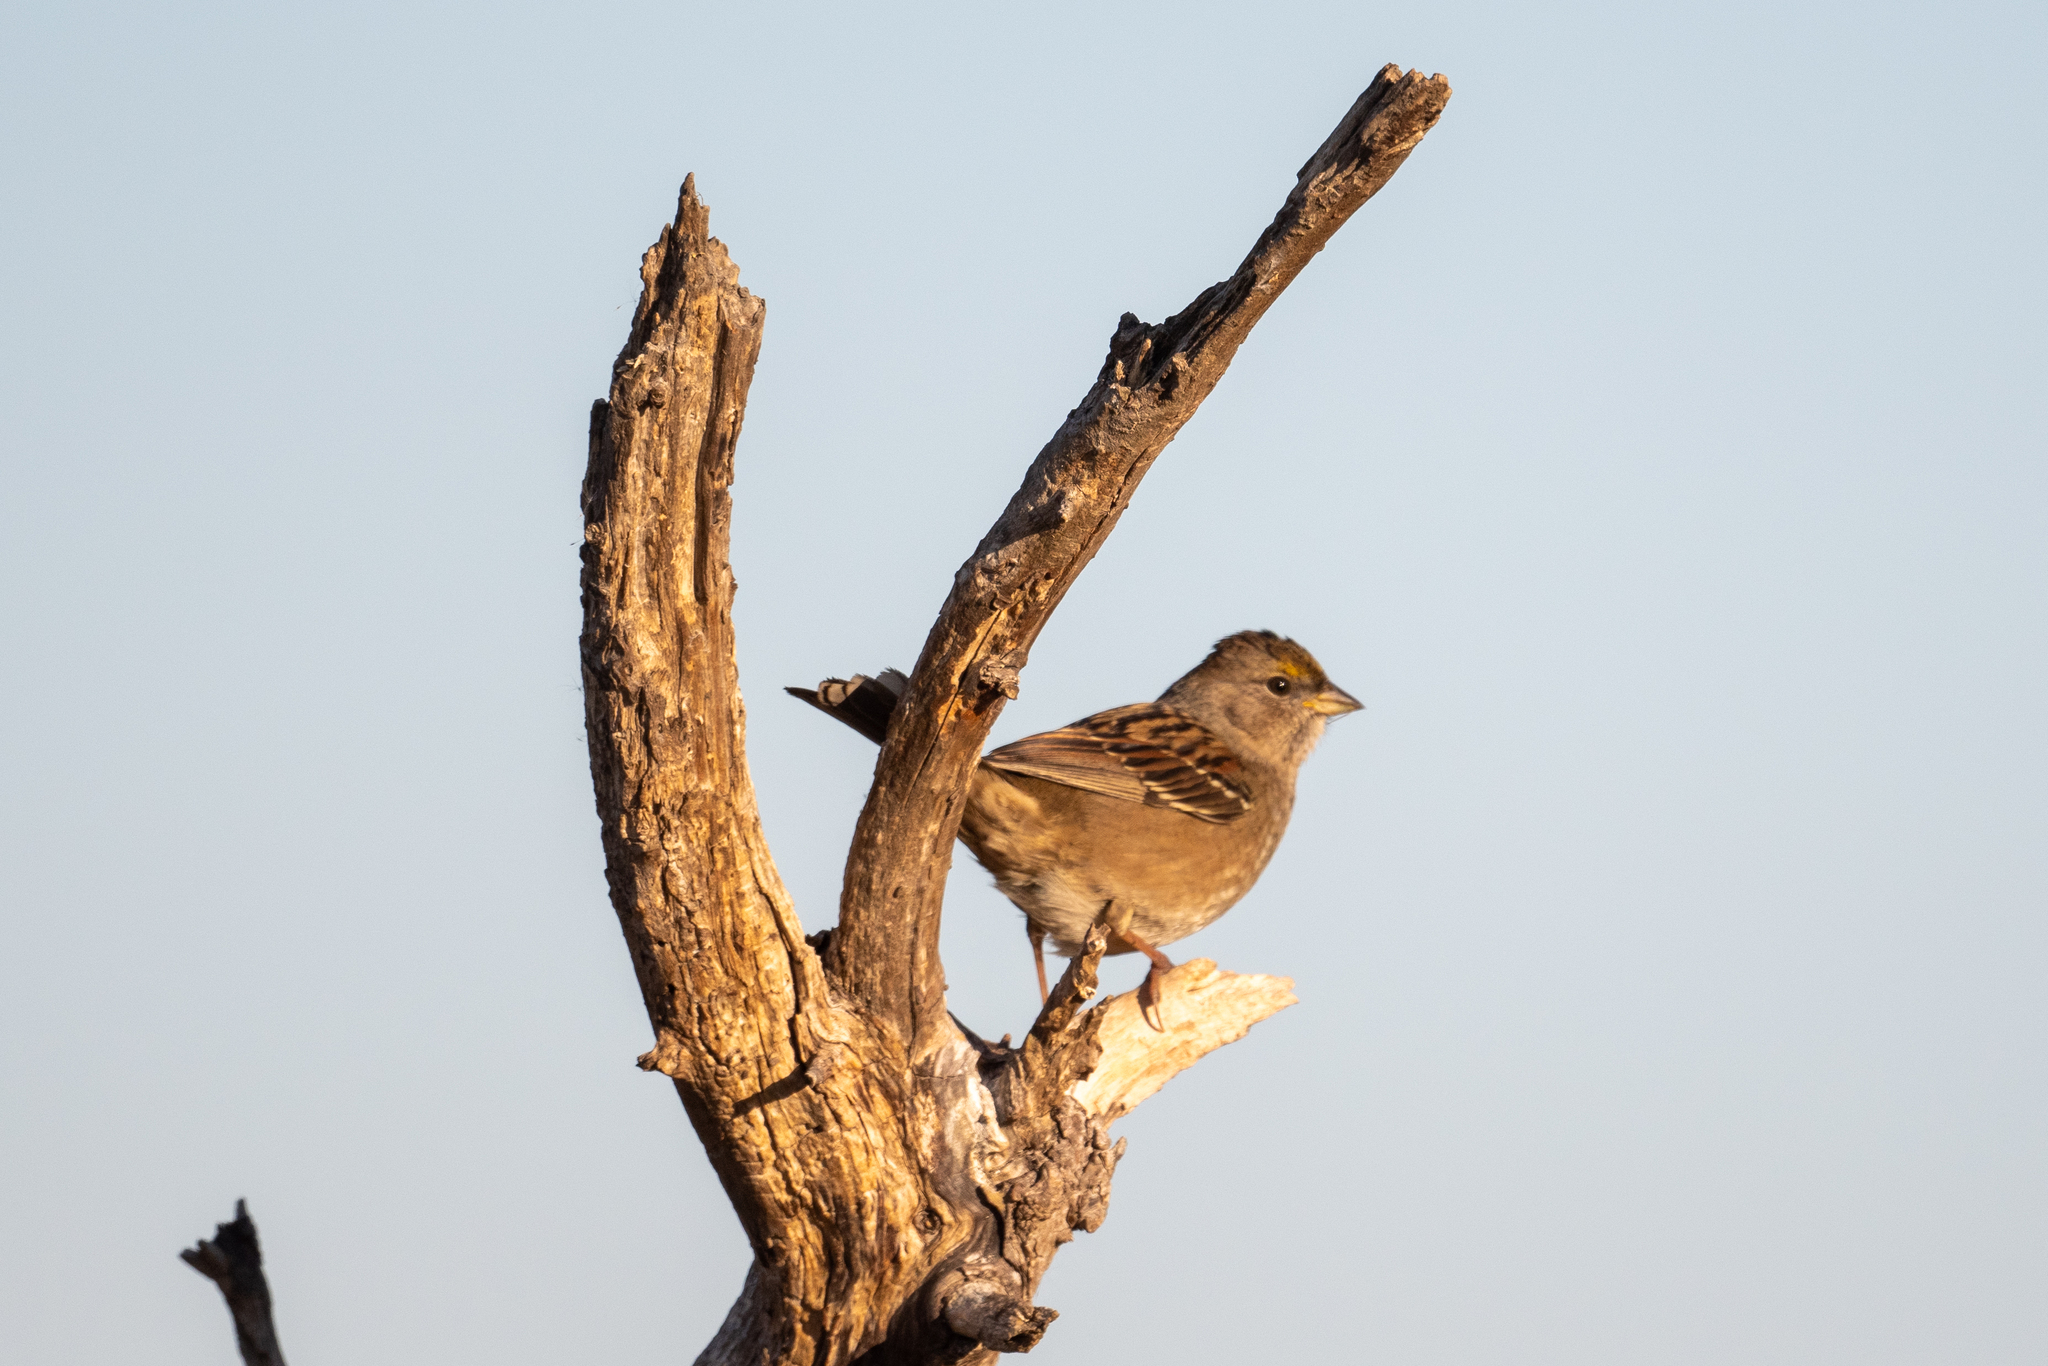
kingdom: Animalia
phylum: Chordata
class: Aves
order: Passeriformes
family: Passerellidae
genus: Zonotrichia
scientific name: Zonotrichia atricapilla
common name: Golden-crowned sparrow
